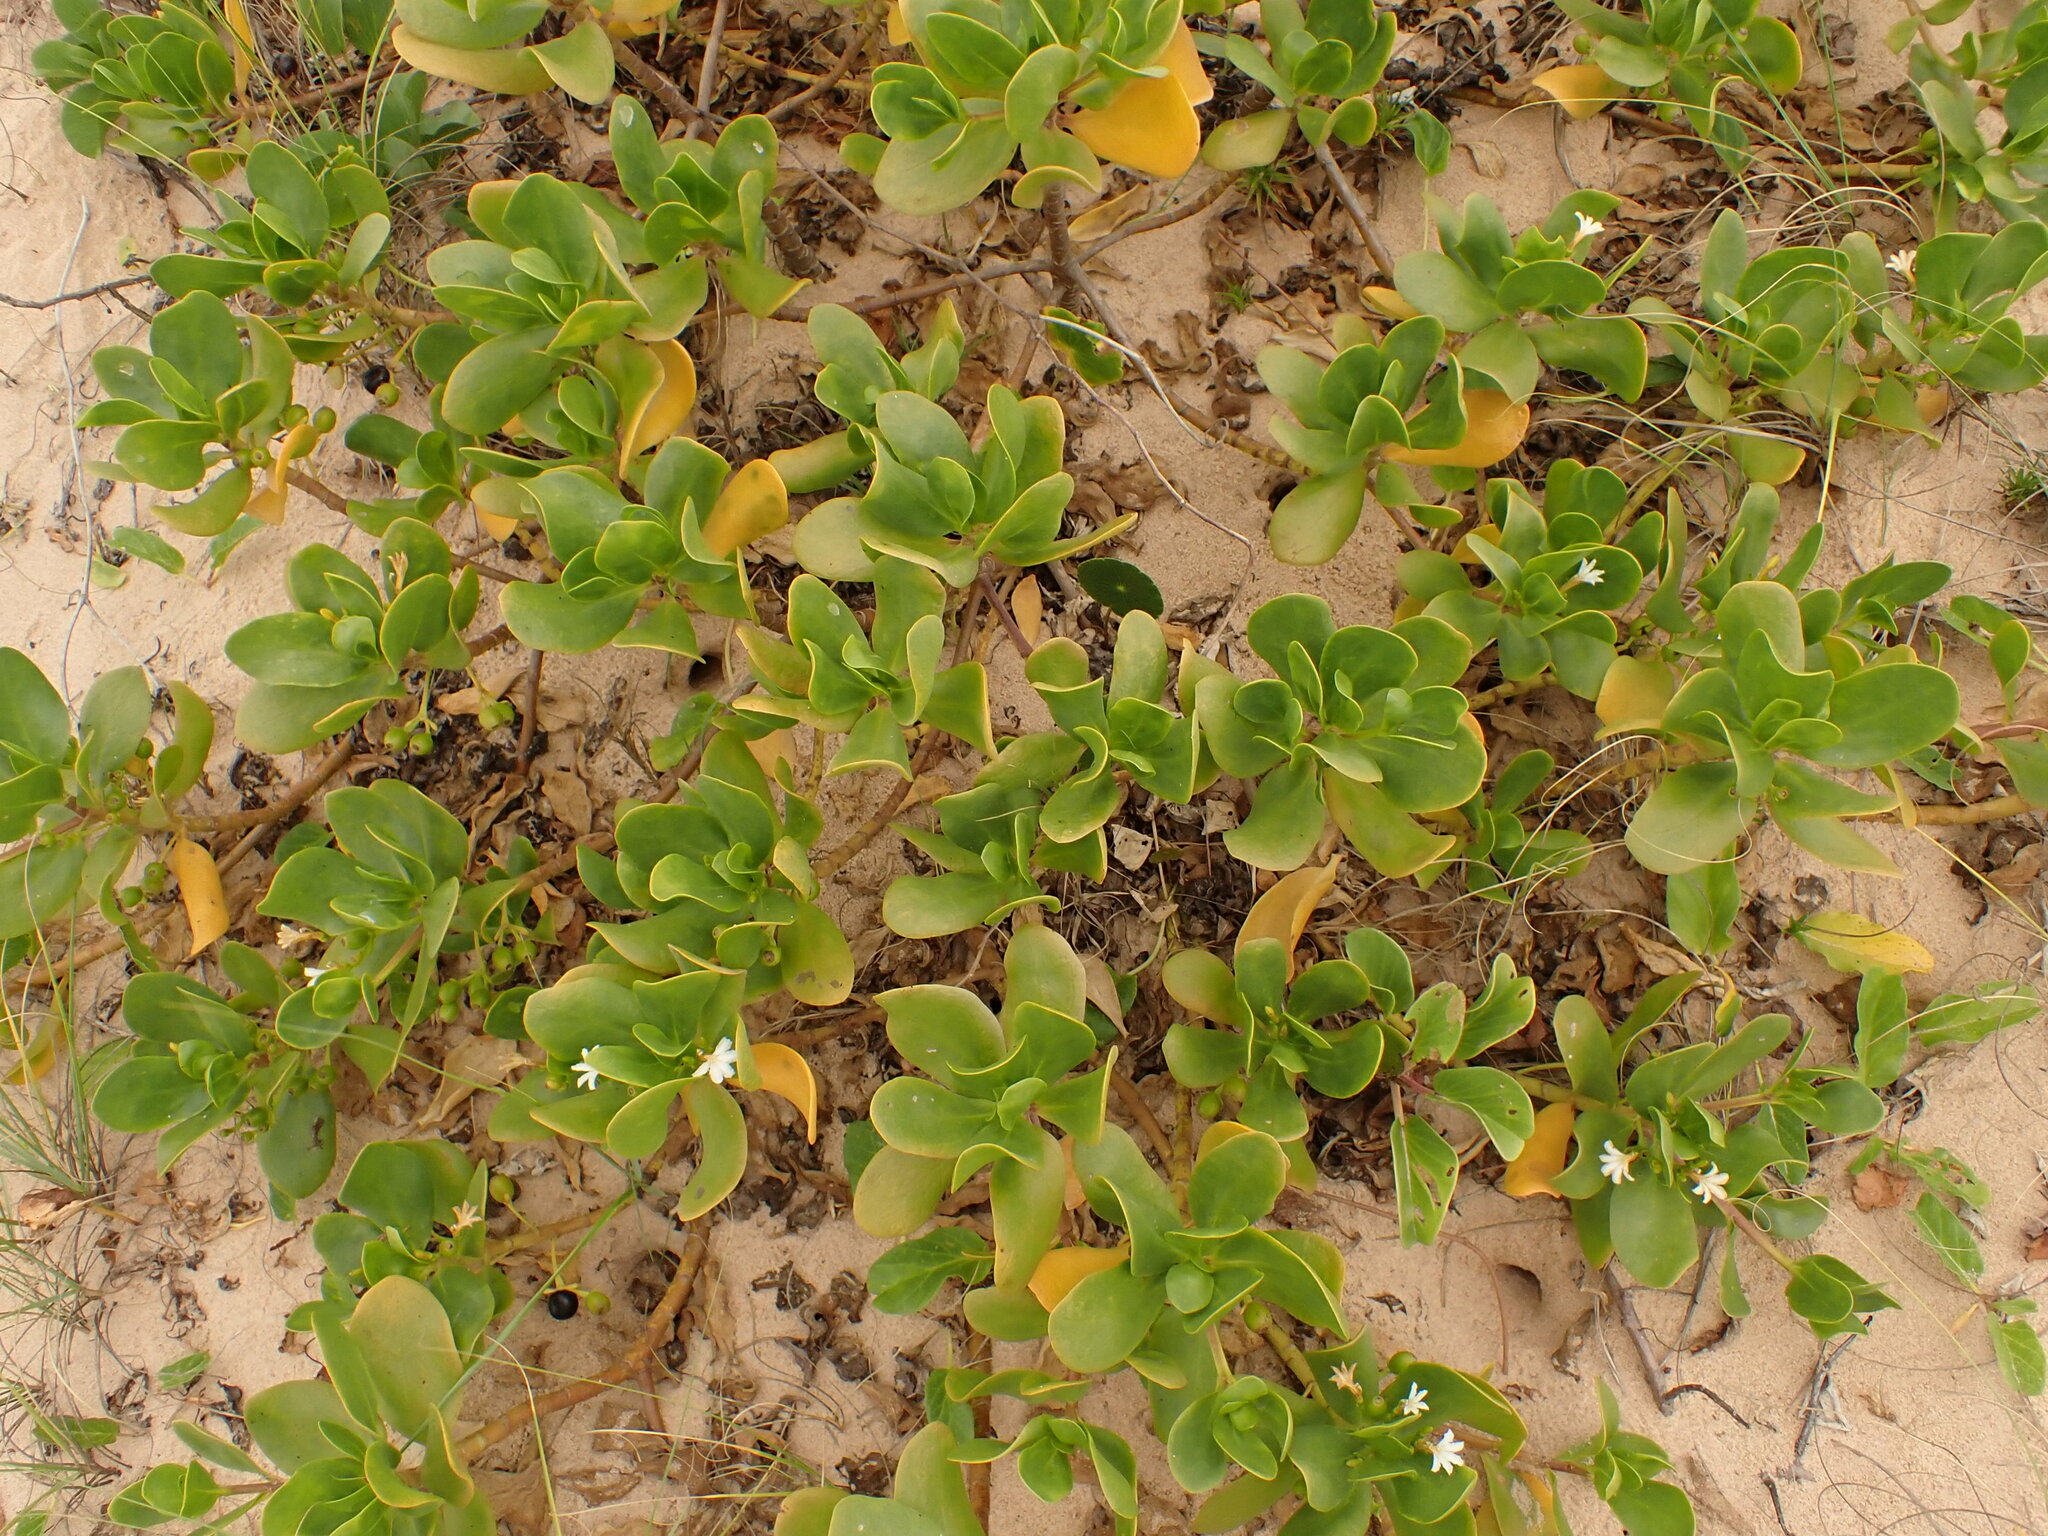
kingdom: Plantae
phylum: Tracheophyta
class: Magnoliopsida
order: Asterales
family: Goodeniaceae
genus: Scaevola
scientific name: Scaevola plumieri
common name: Gull feed
